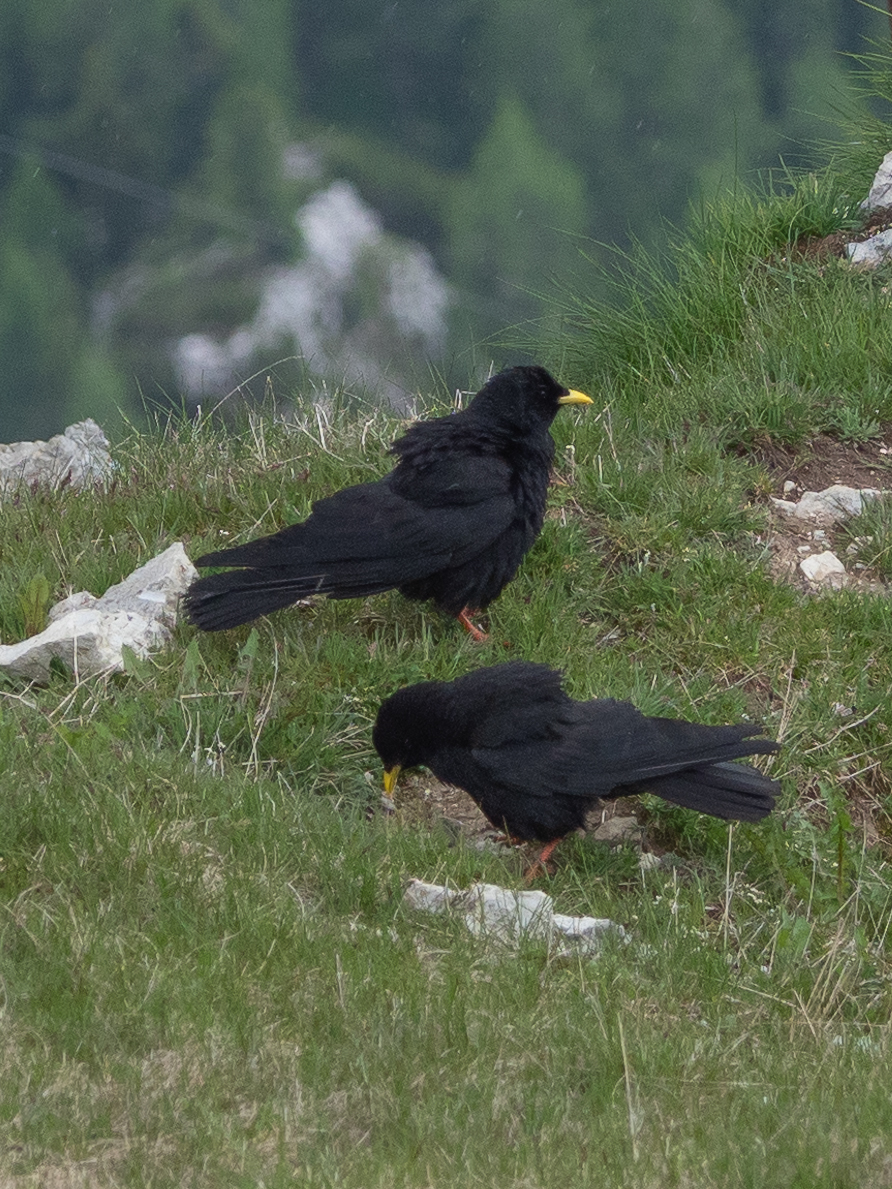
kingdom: Animalia
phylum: Chordata
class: Aves
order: Passeriformes
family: Corvidae
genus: Pyrrhocorax
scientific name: Pyrrhocorax graculus
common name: Alpine chough
